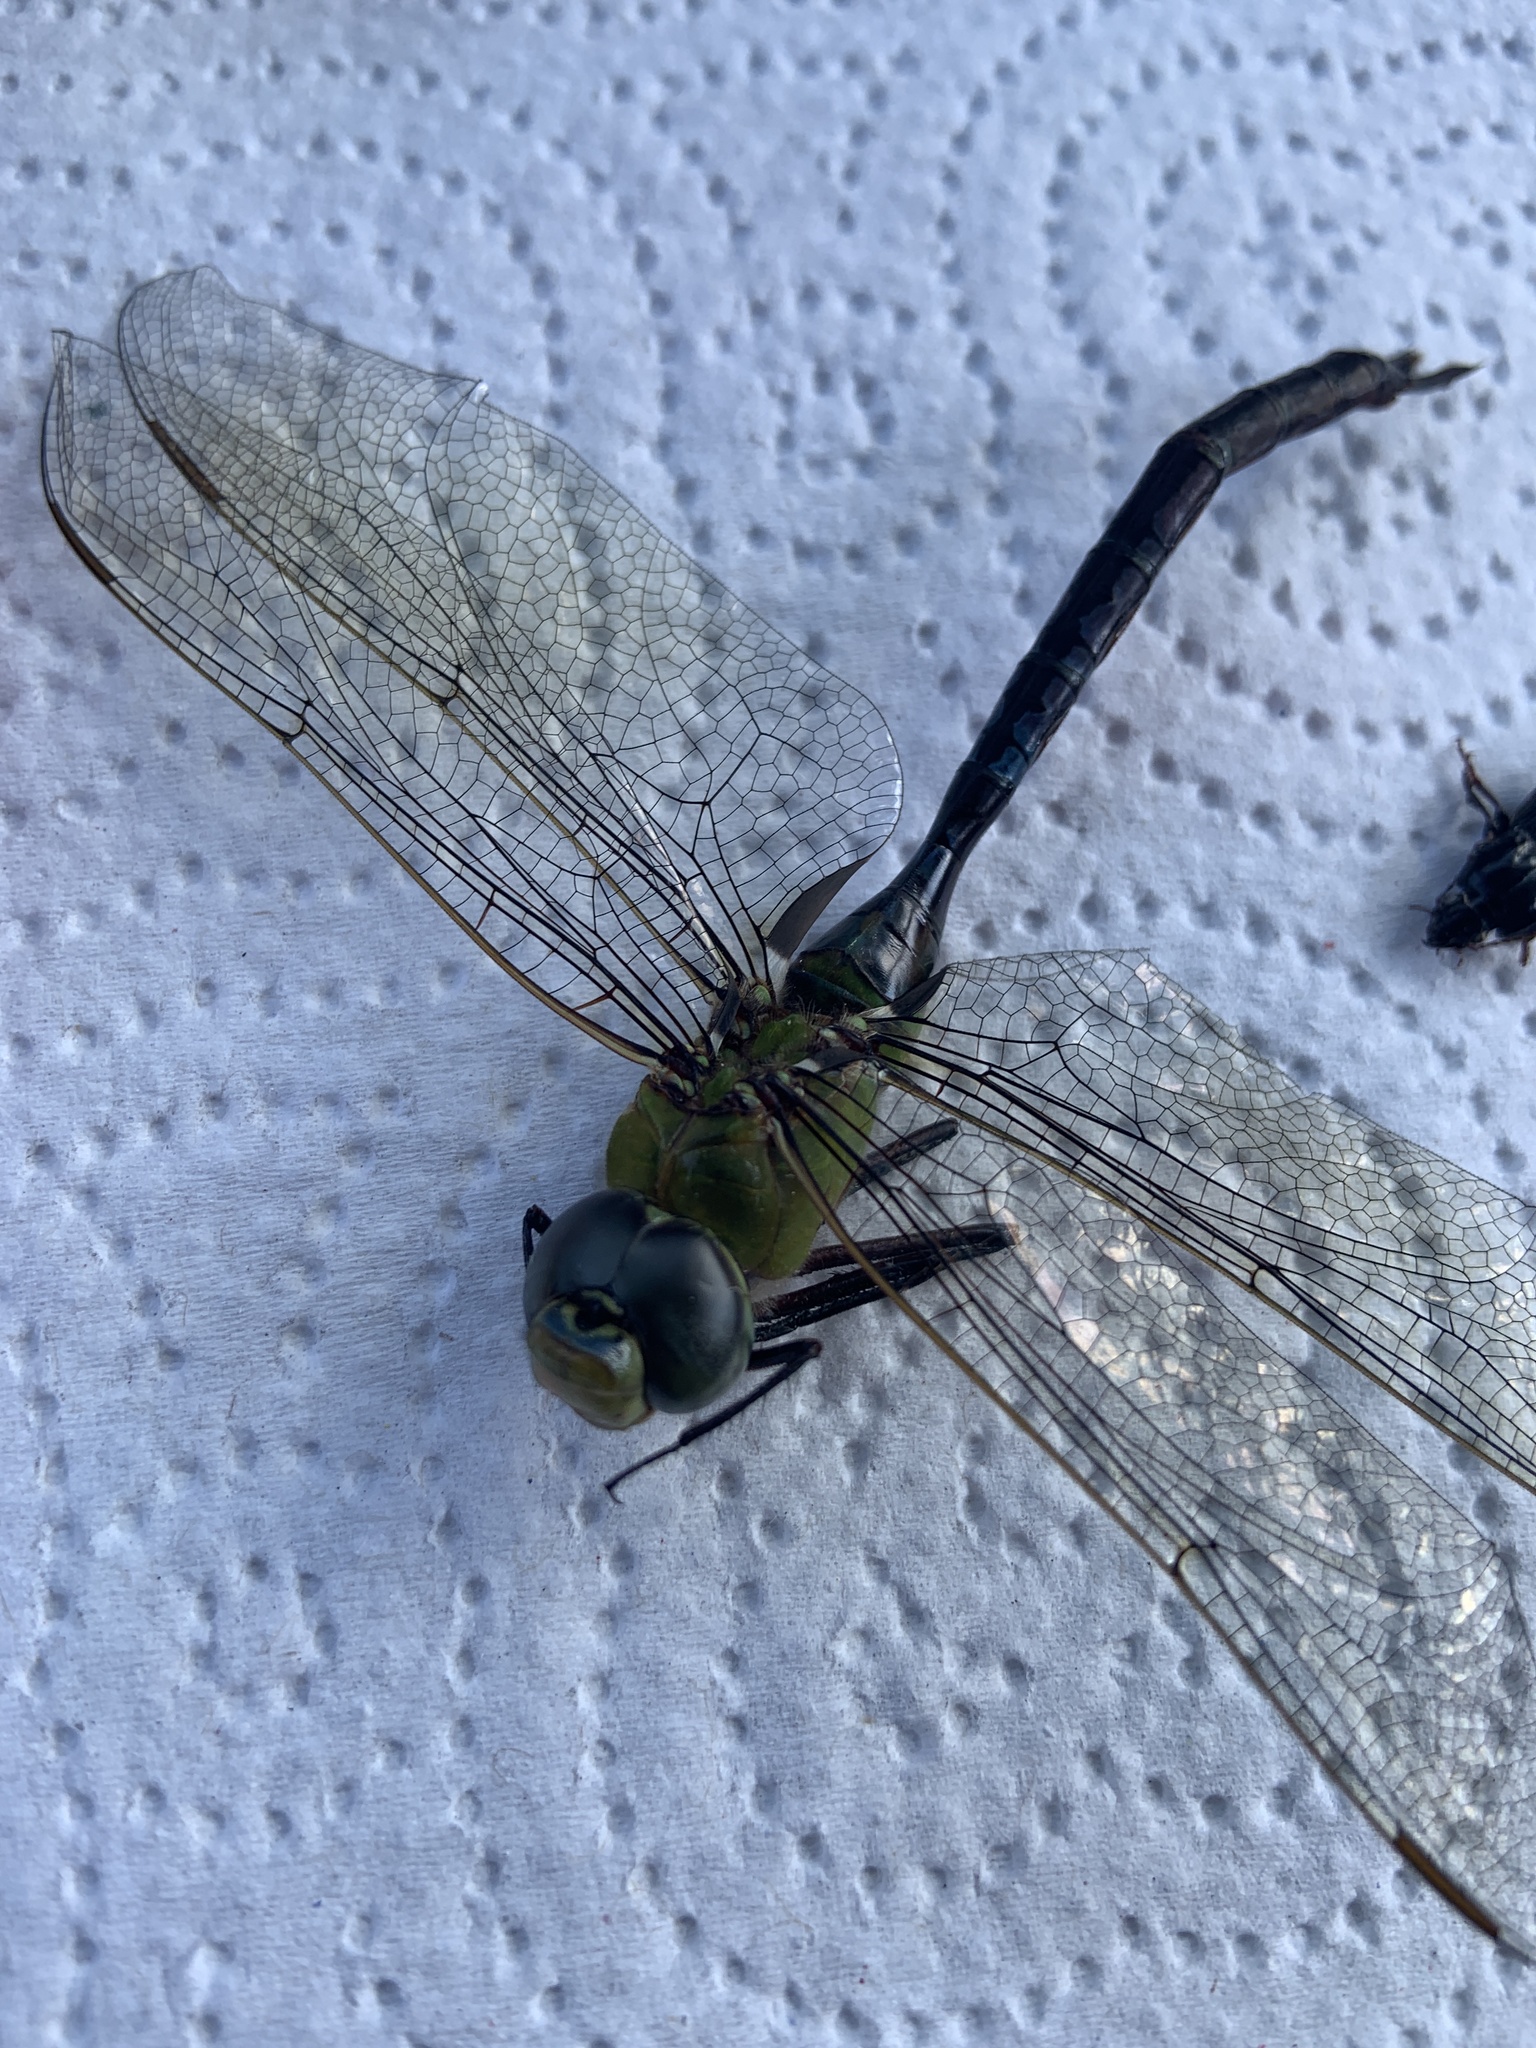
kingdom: Animalia
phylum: Arthropoda
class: Insecta
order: Odonata
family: Aeshnidae
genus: Anax
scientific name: Anax junius
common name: Common green darner
